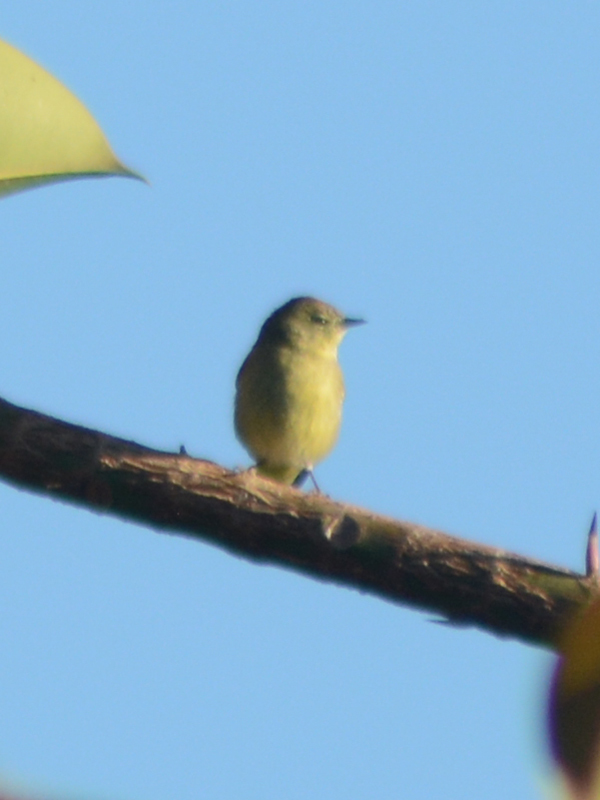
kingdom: Animalia
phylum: Chordata
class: Aves
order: Passeriformes
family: Parulidae
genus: Leiothlypis
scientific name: Leiothlypis celata
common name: Orange-crowned warbler
